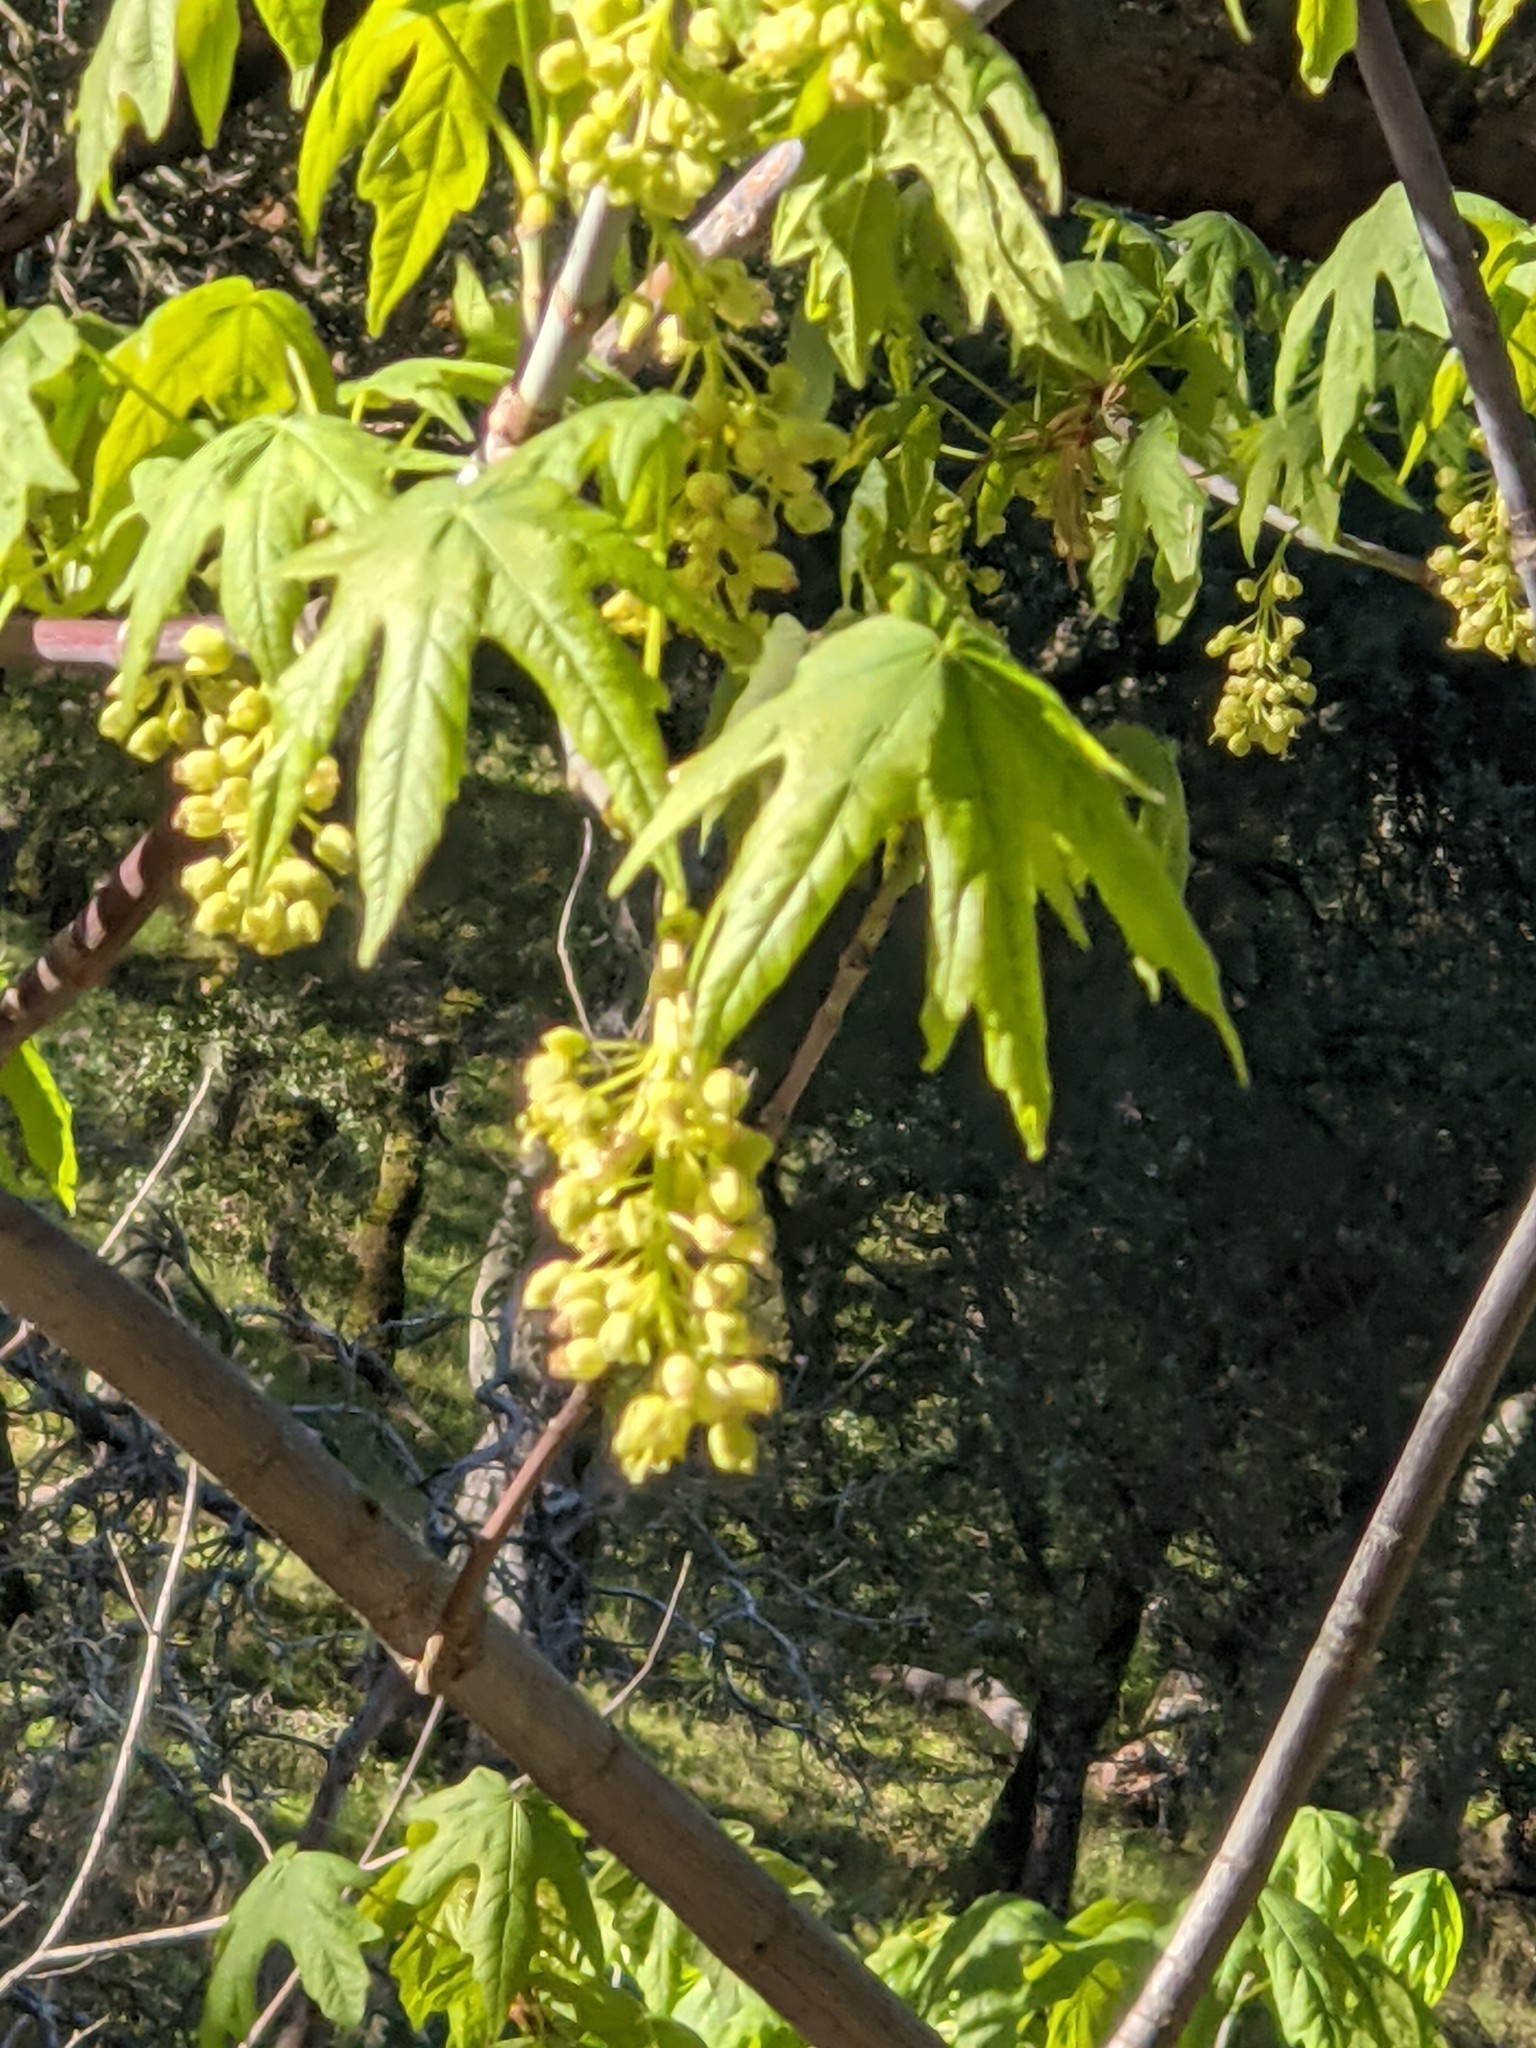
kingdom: Plantae
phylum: Tracheophyta
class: Magnoliopsida
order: Sapindales
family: Sapindaceae
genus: Acer
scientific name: Acer macrophyllum
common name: Oregon maple
